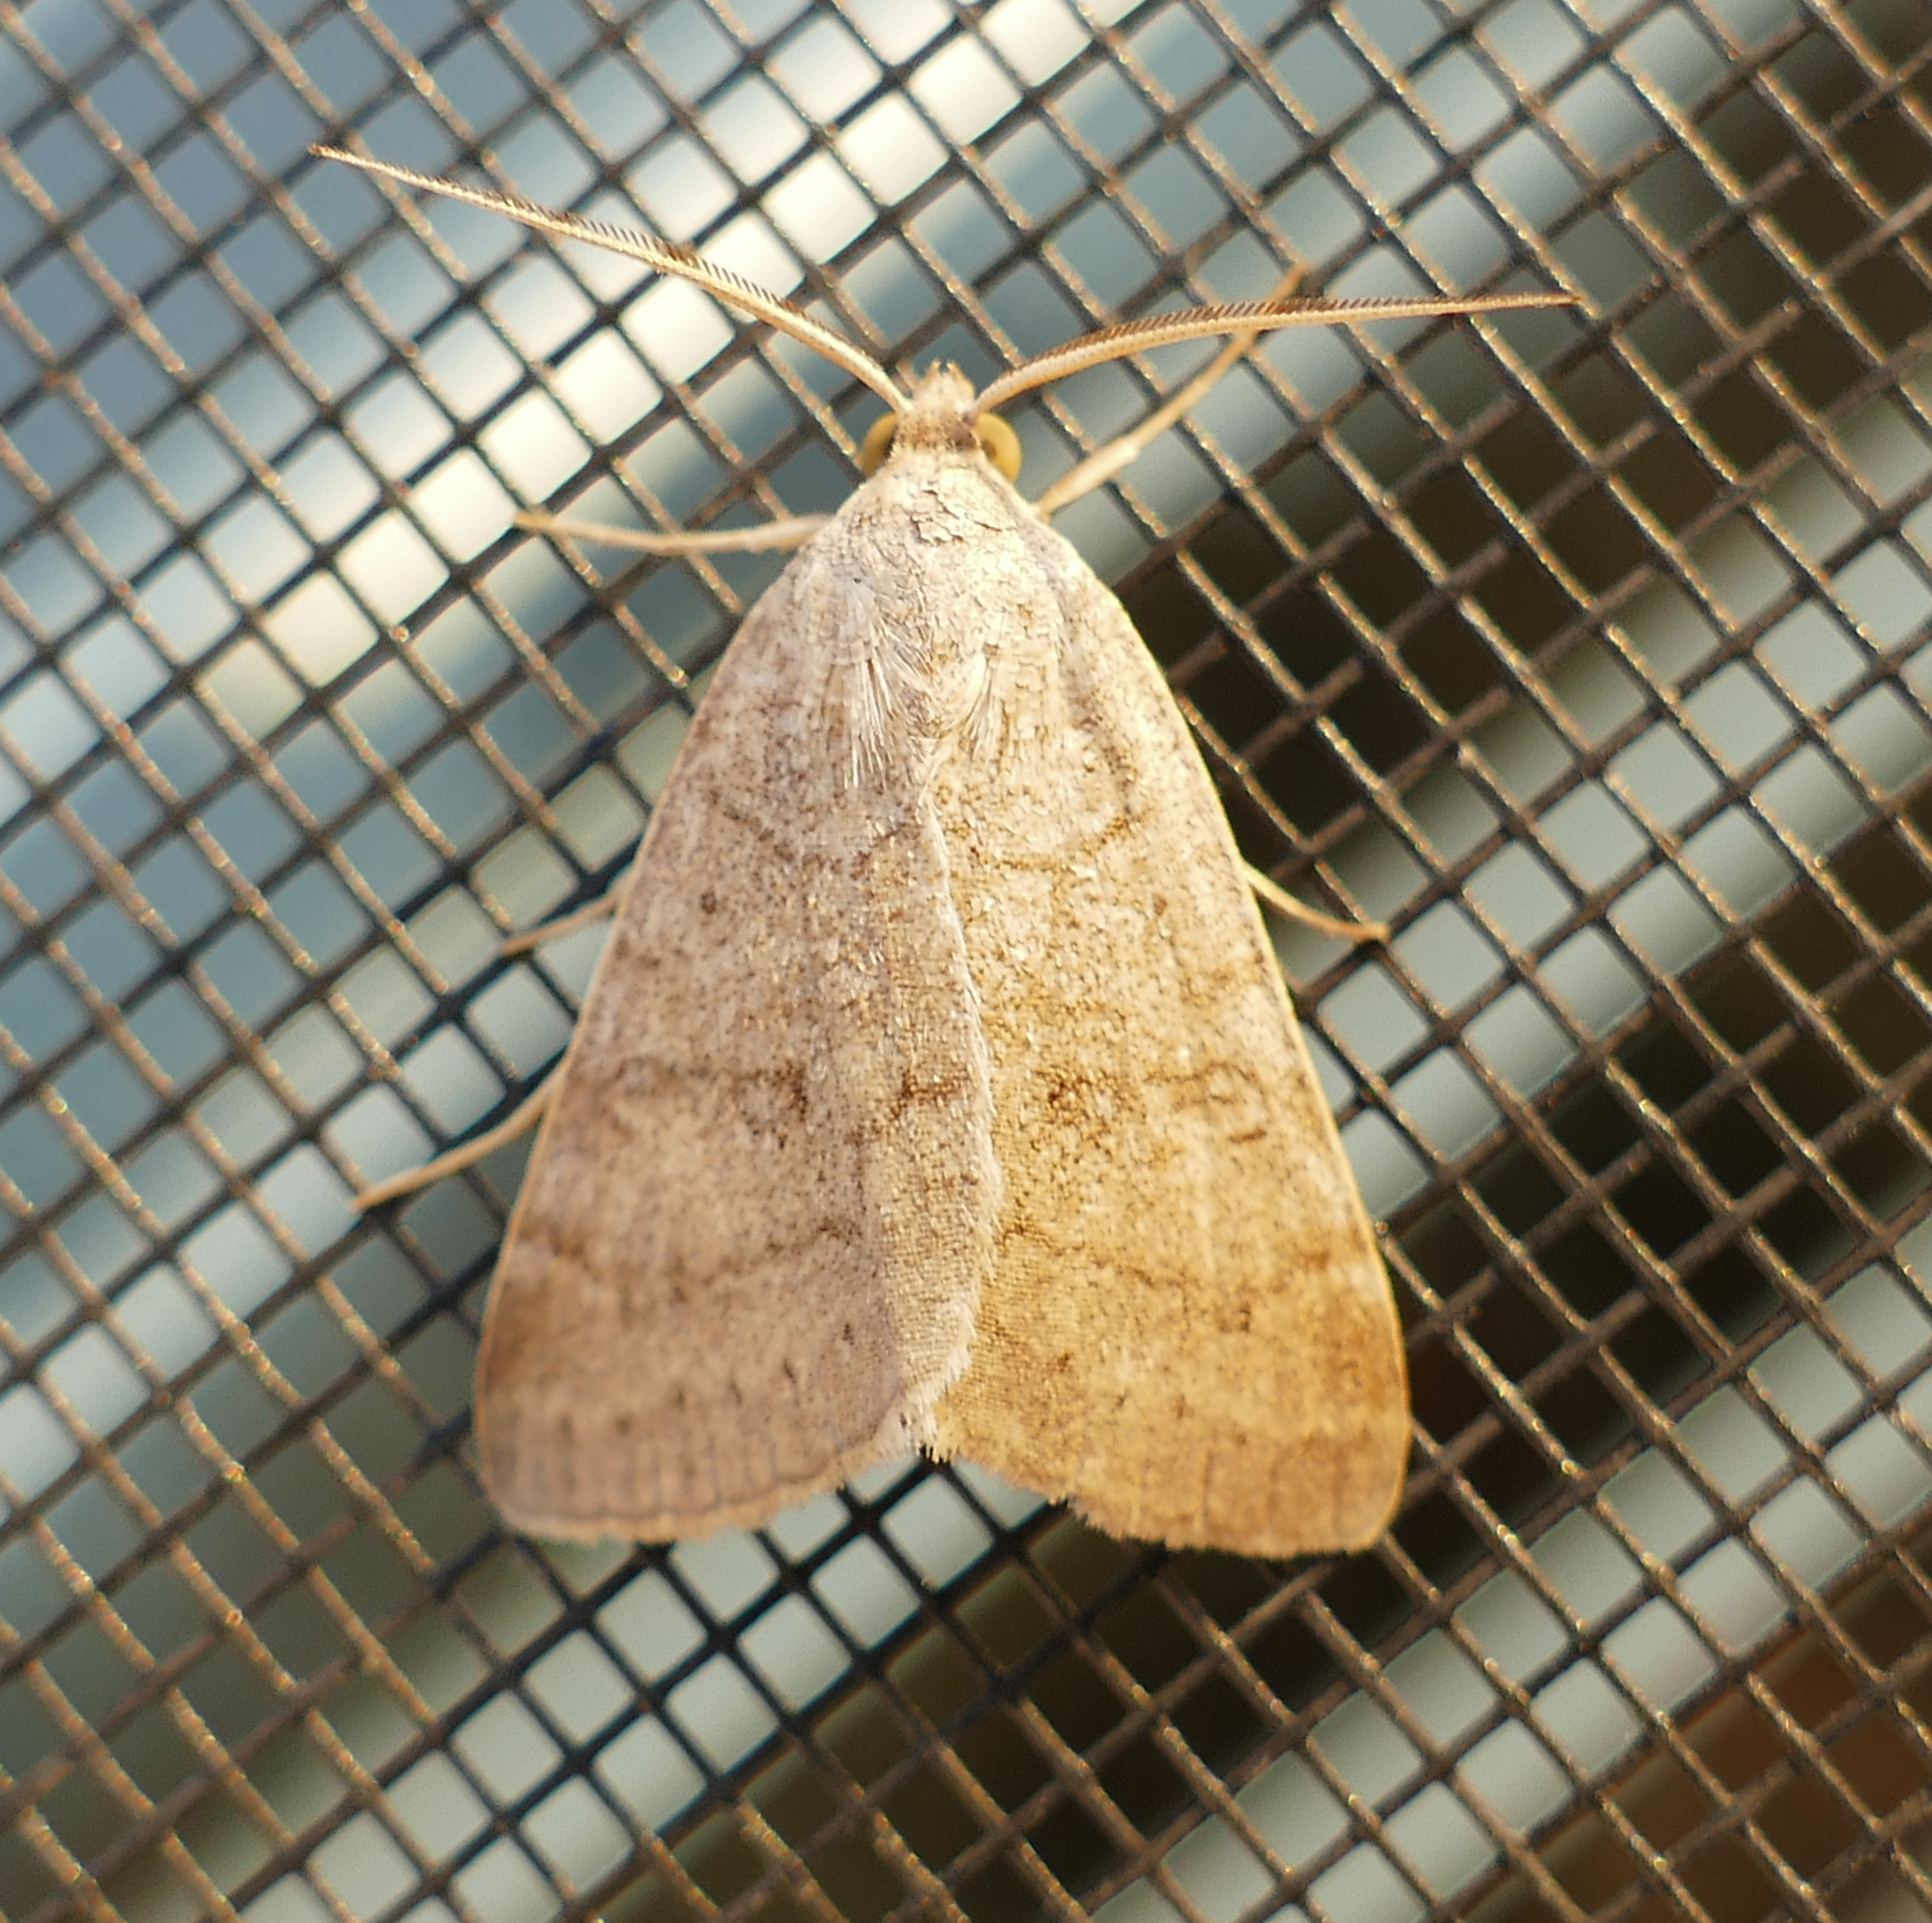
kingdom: Animalia
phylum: Arthropoda
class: Insecta
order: Lepidoptera
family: Erebidae
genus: Caenurgia
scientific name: Caenurgia chloropha
